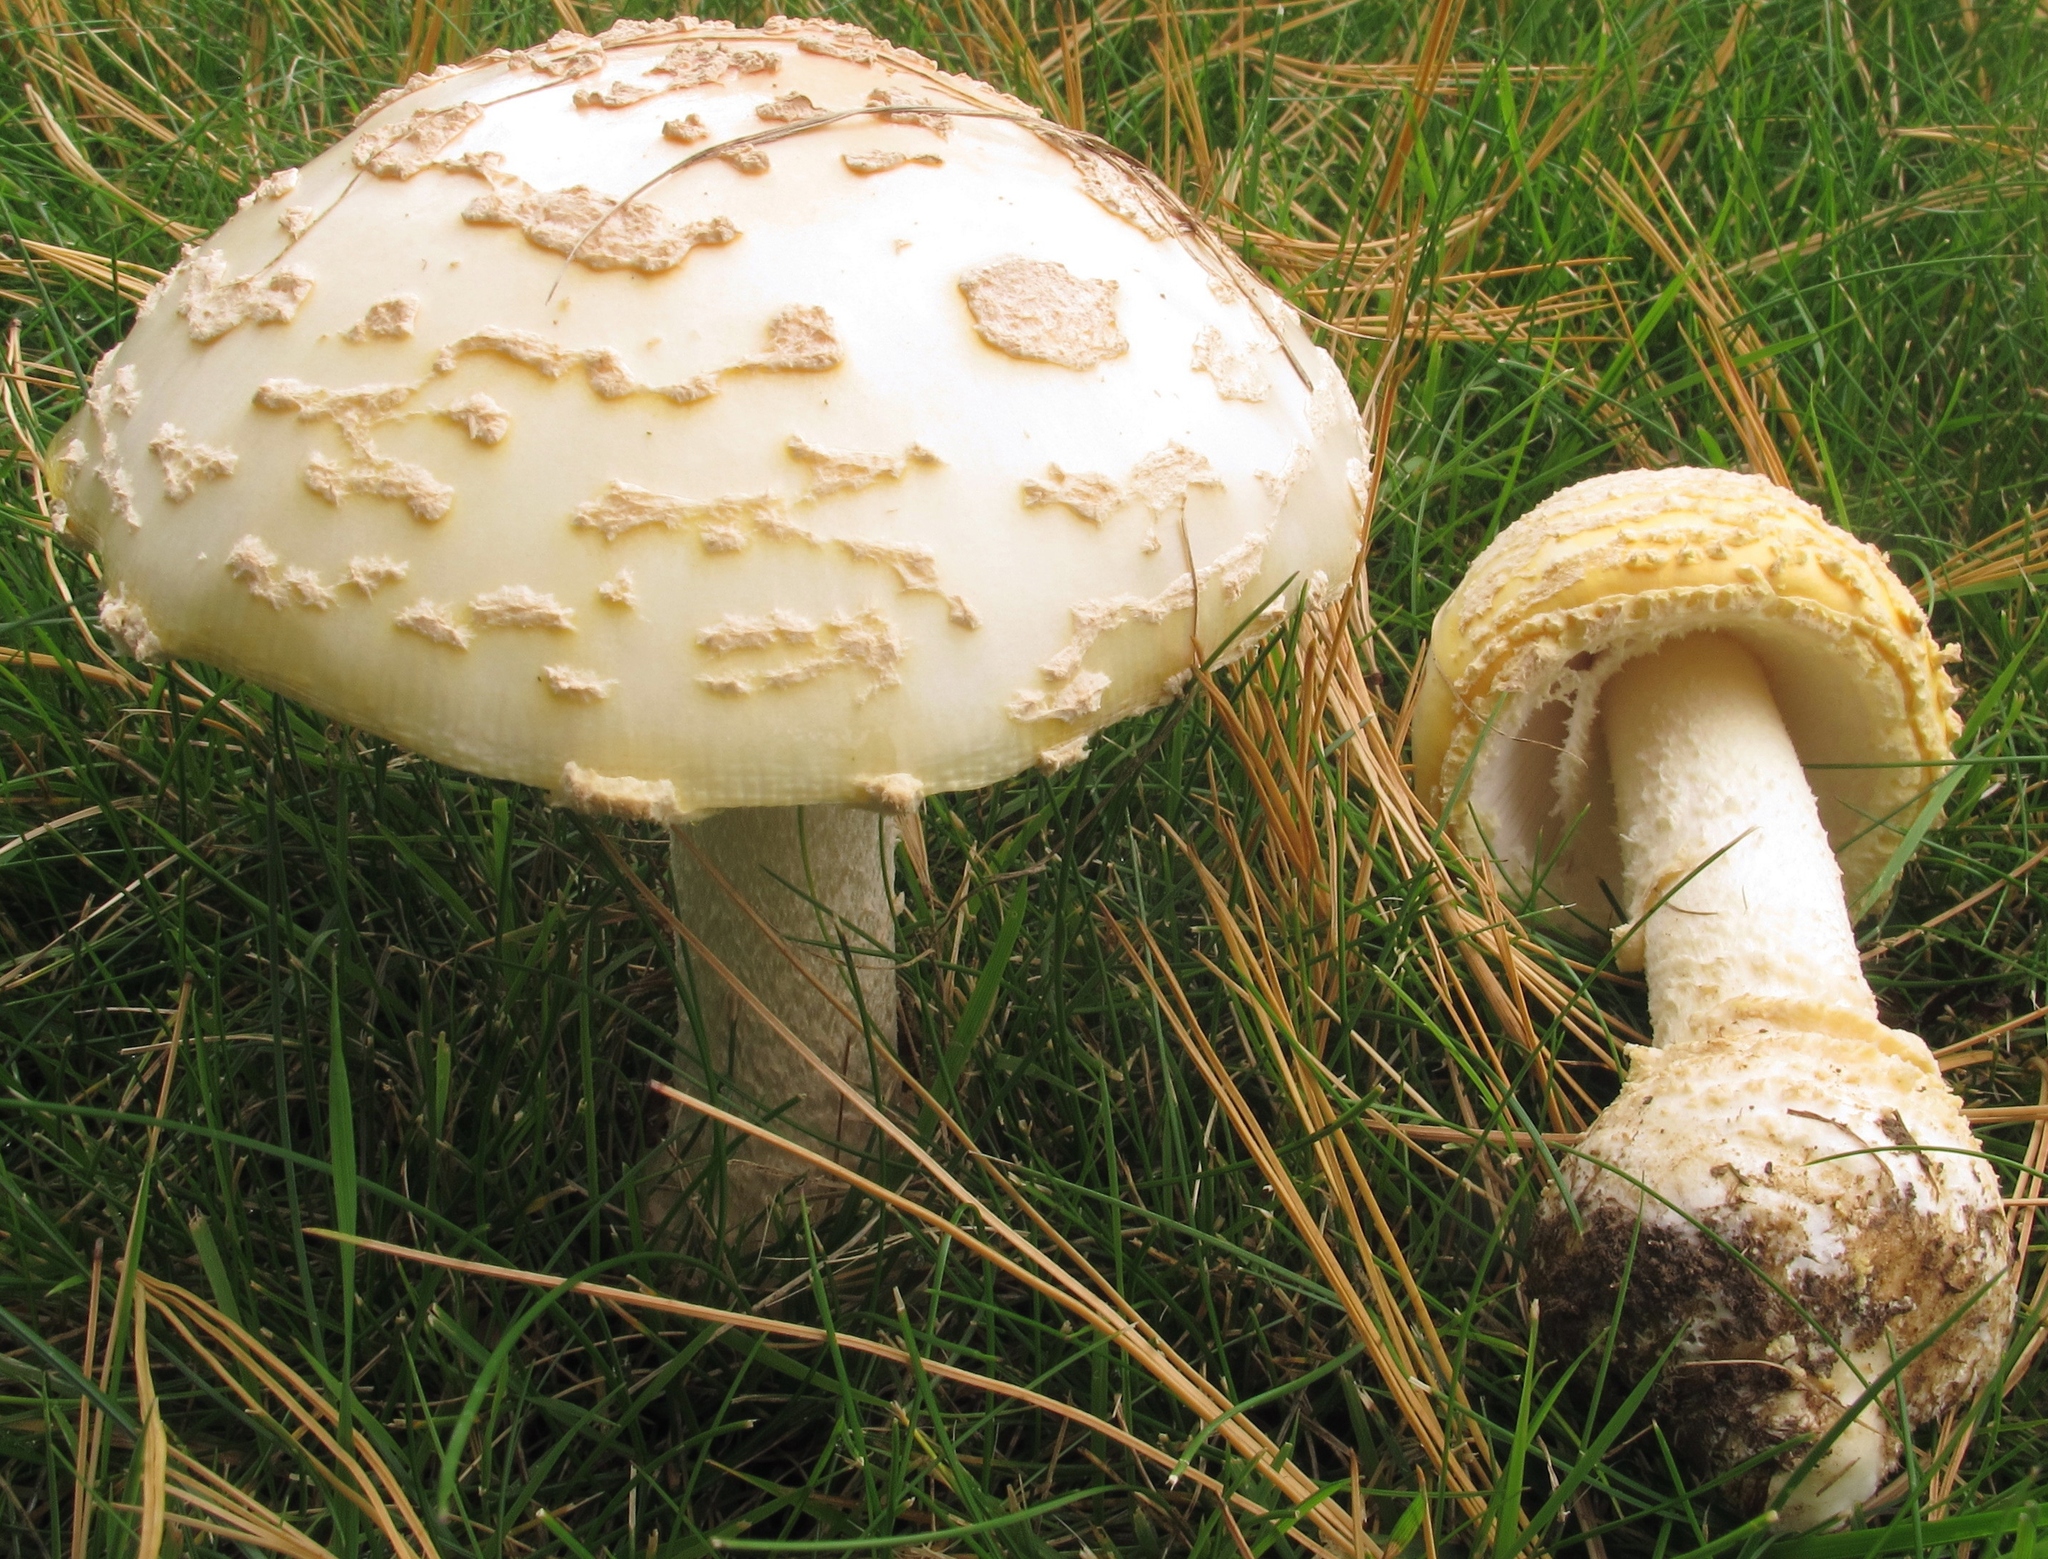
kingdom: Fungi
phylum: Basidiomycota
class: Agaricomycetes
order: Agaricales
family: Amanitaceae
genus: Amanita
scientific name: Amanita muscaria
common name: Fly agaric
